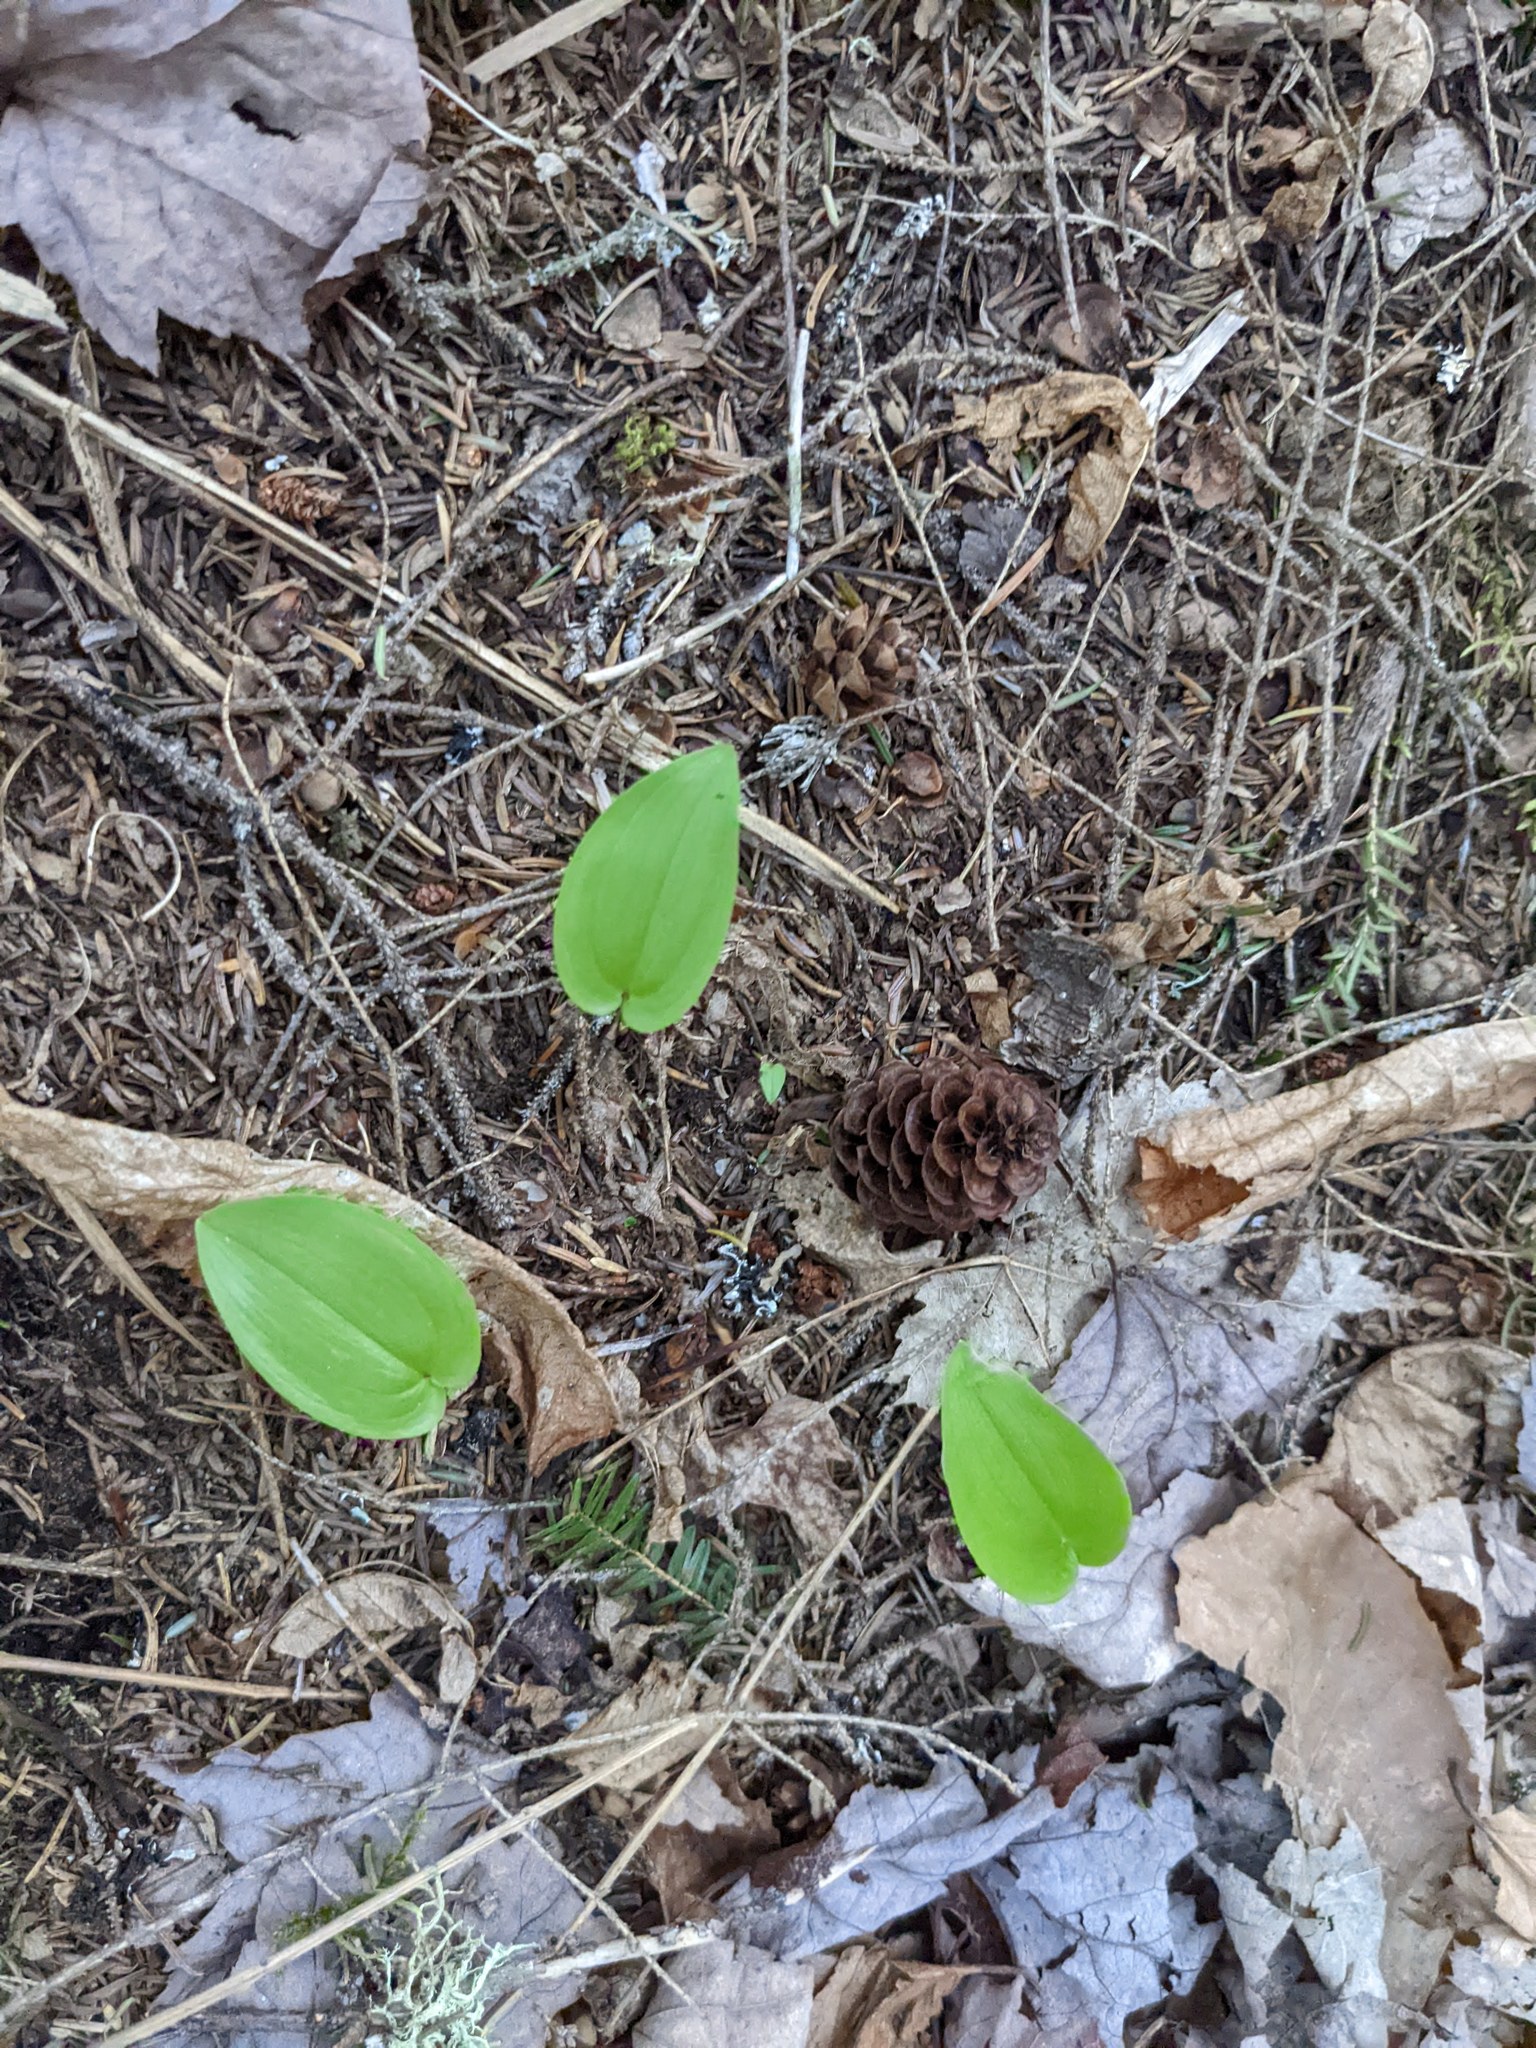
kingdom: Plantae
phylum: Tracheophyta
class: Liliopsida
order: Asparagales
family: Asparagaceae
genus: Maianthemum
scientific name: Maianthemum canadense
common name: False lily-of-the-valley
